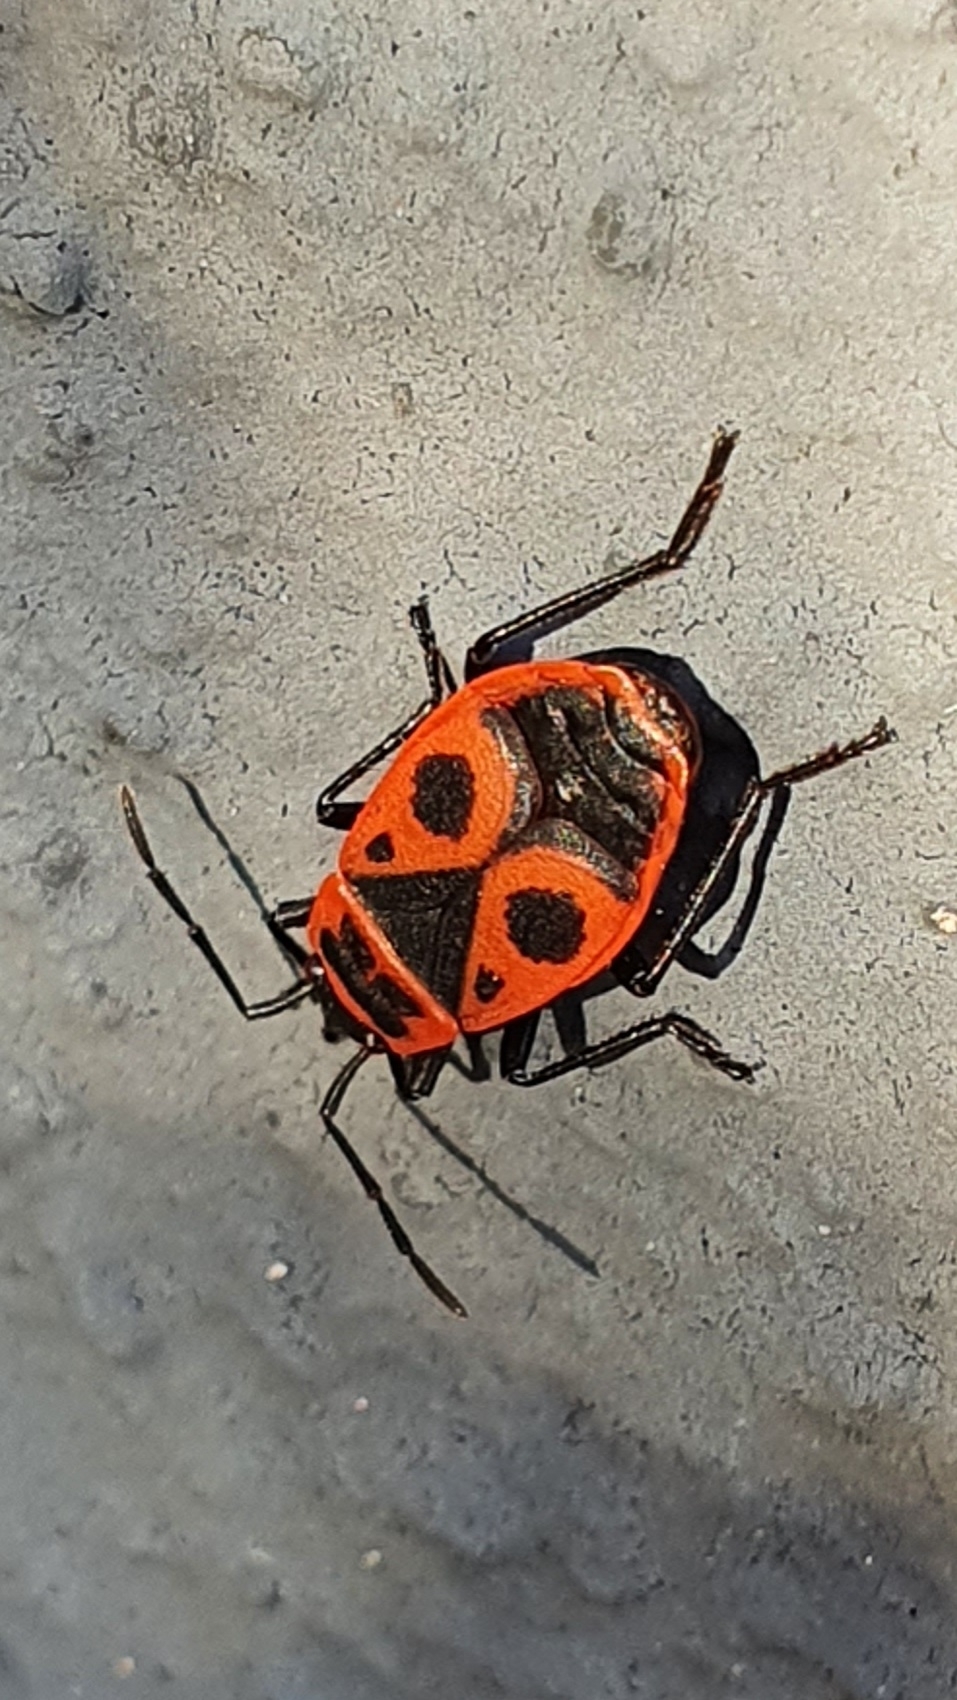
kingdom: Animalia
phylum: Arthropoda
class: Insecta
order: Hemiptera
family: Pyrrhocoridae
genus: Pyrrhocoris
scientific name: Pyrrhocoris apterus
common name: Firebug
